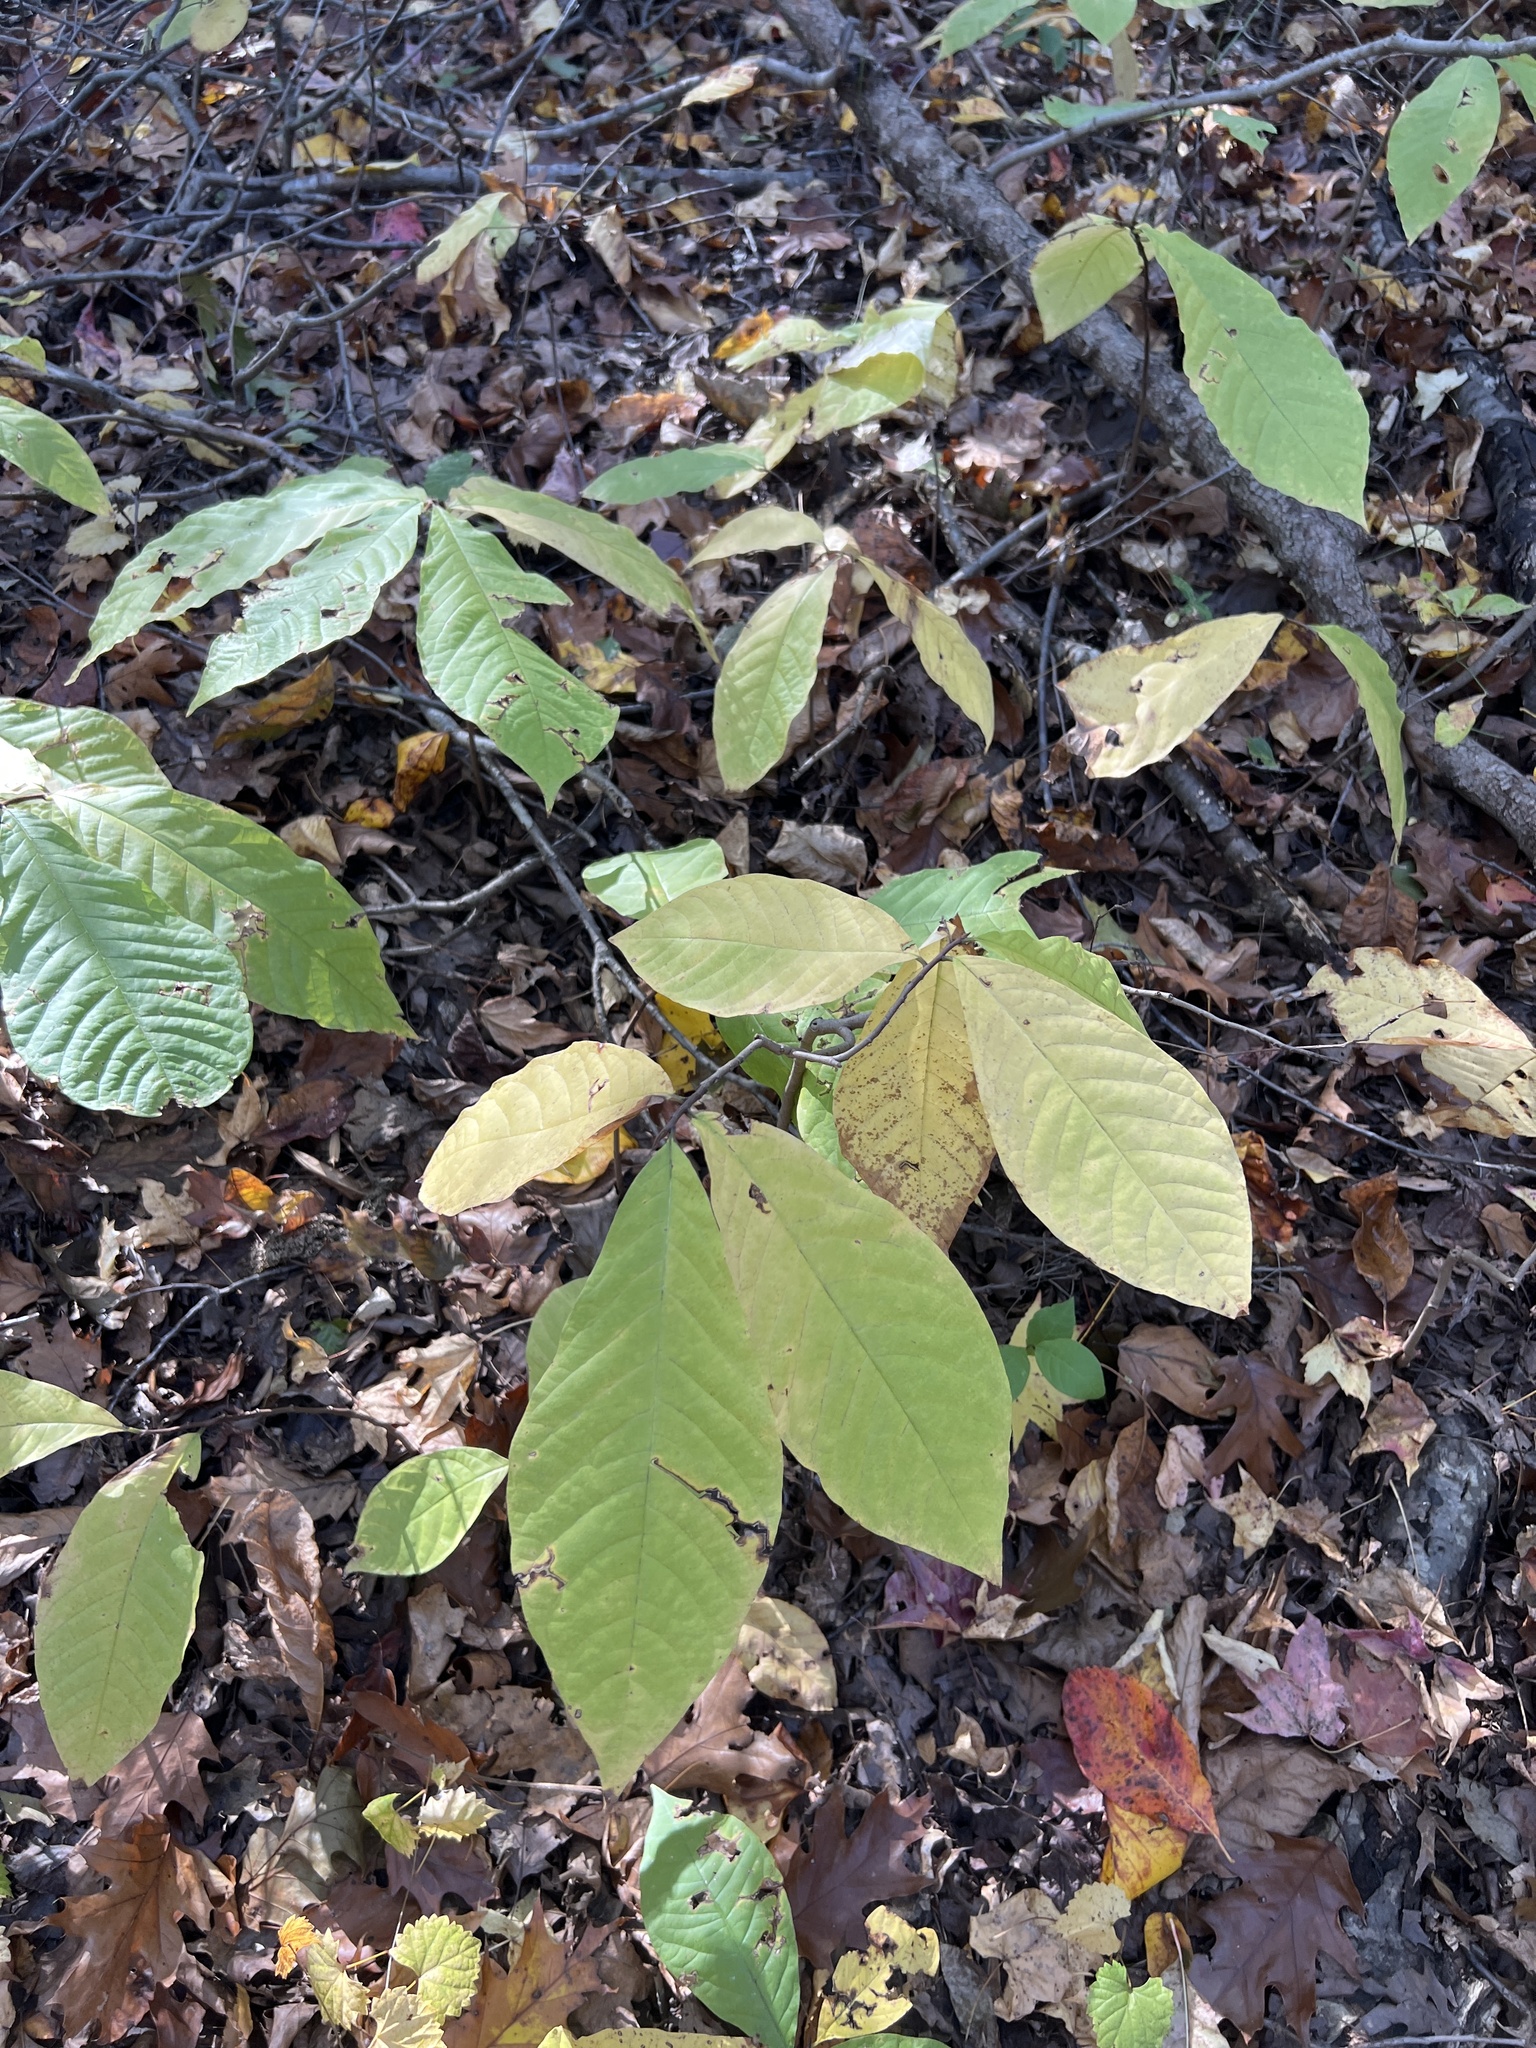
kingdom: Plantae
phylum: Tracheophyta
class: Magnoliopsida
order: Magnoliales
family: Annonaceae
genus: Asimina
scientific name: Asimina triloba
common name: Dog-banana
